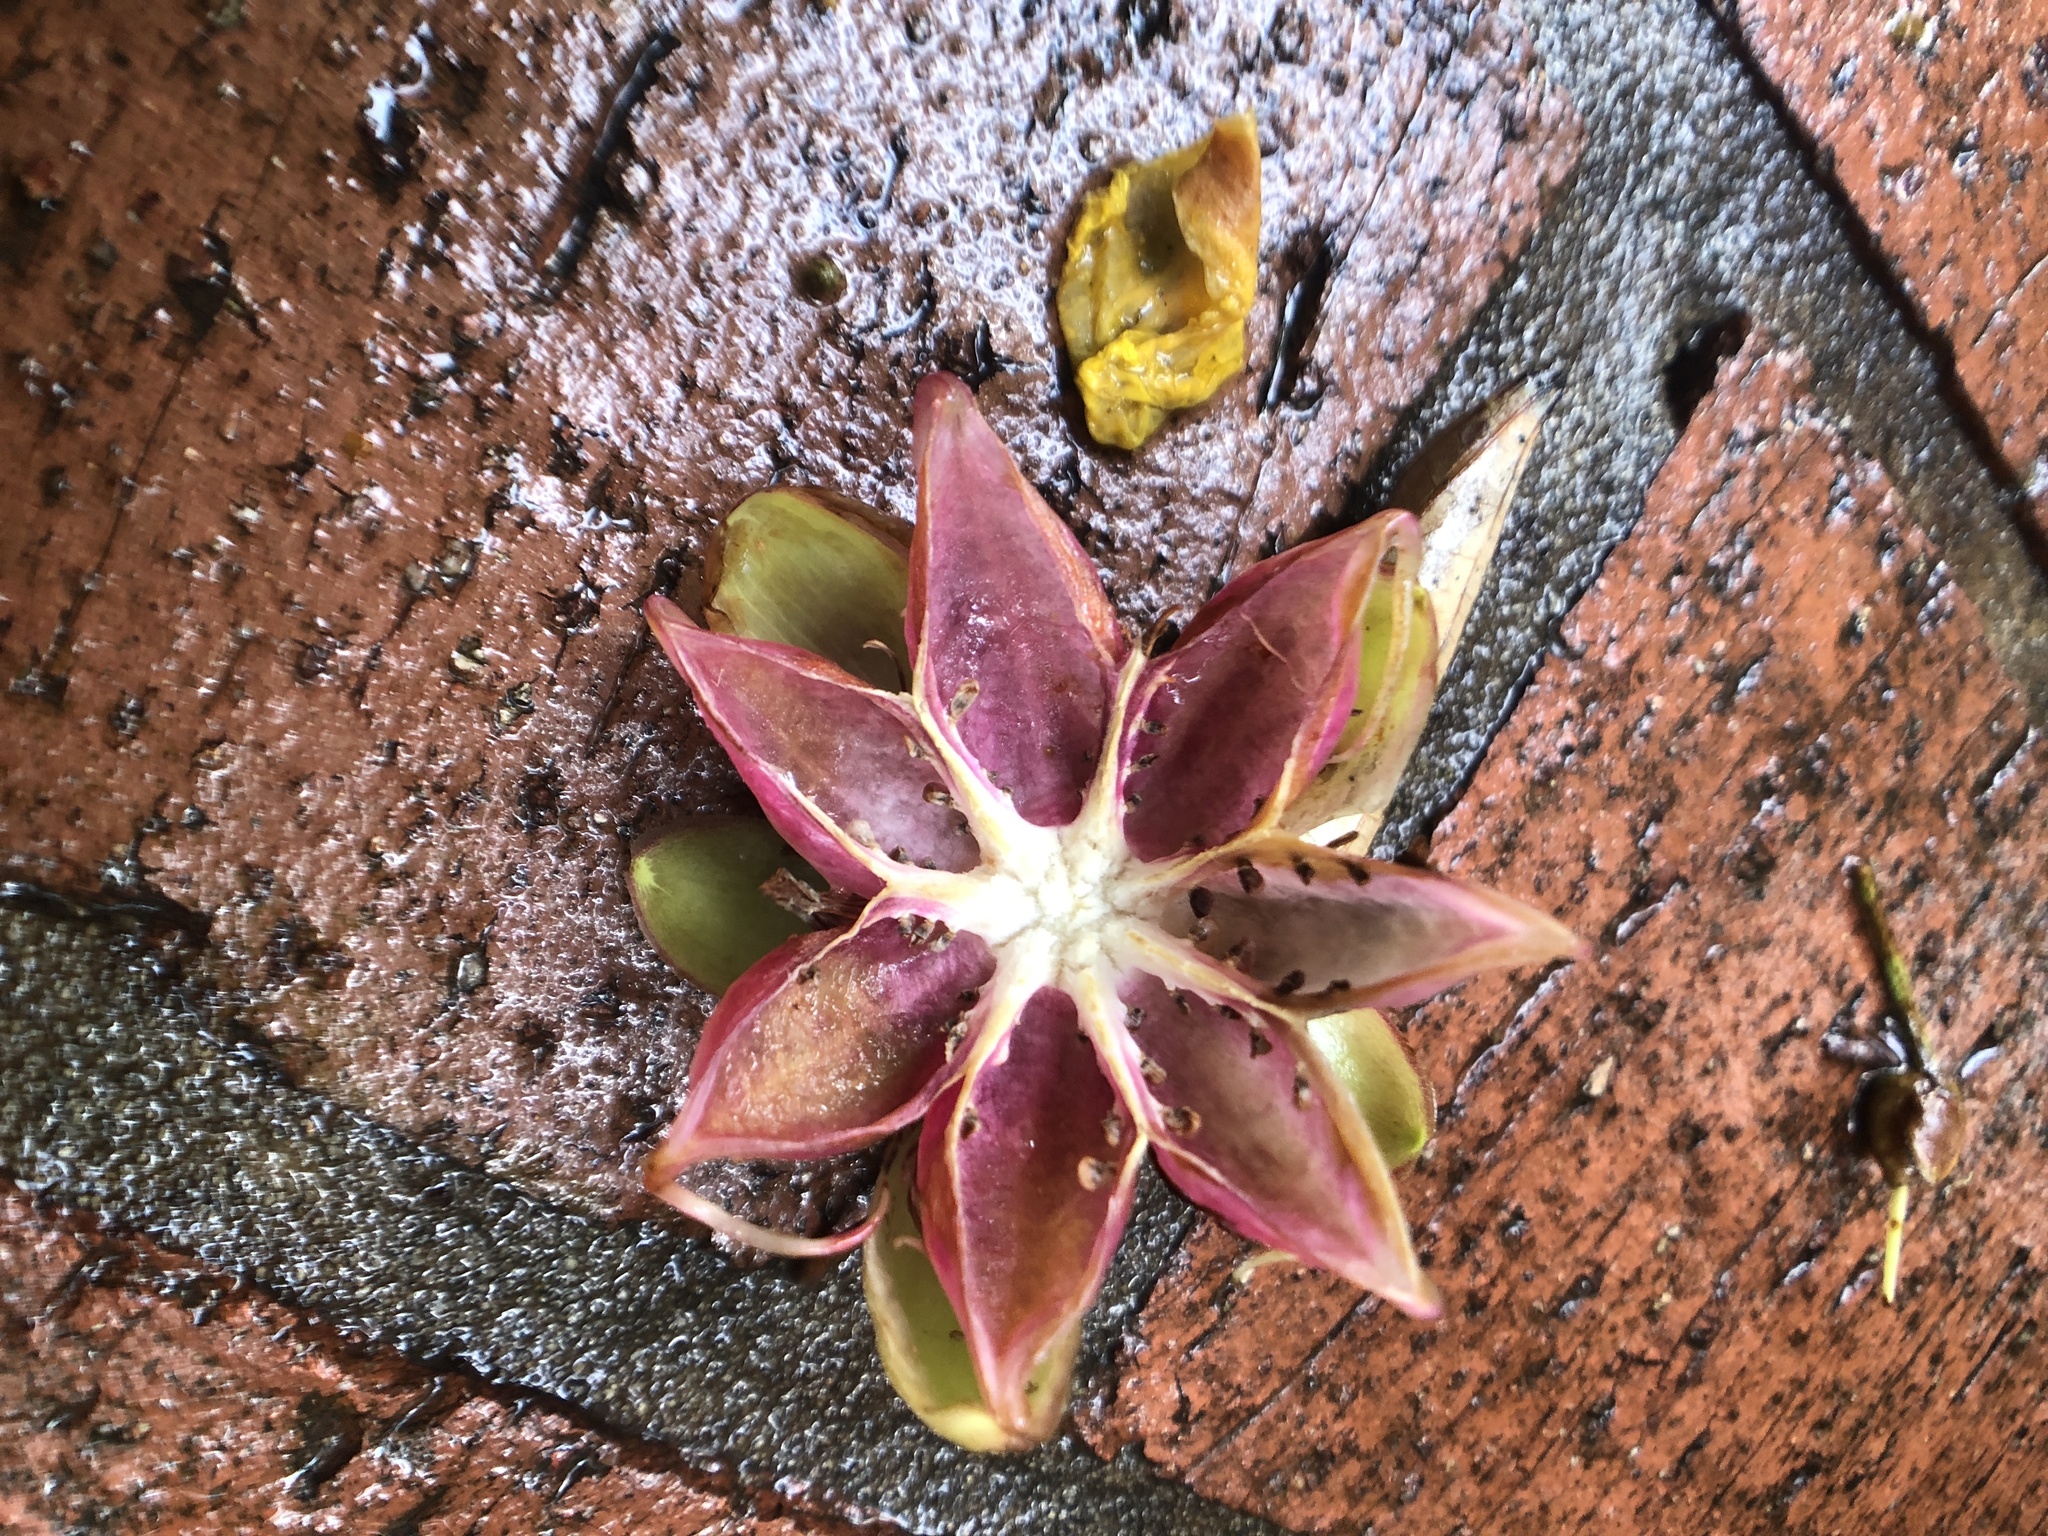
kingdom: Plantae
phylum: Tracheophyta
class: Magnoliopsida
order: Dilleniales
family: Dilleniaceae
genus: Dillenia
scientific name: Dillenia suffruticosa
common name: Shrubby dillenia
